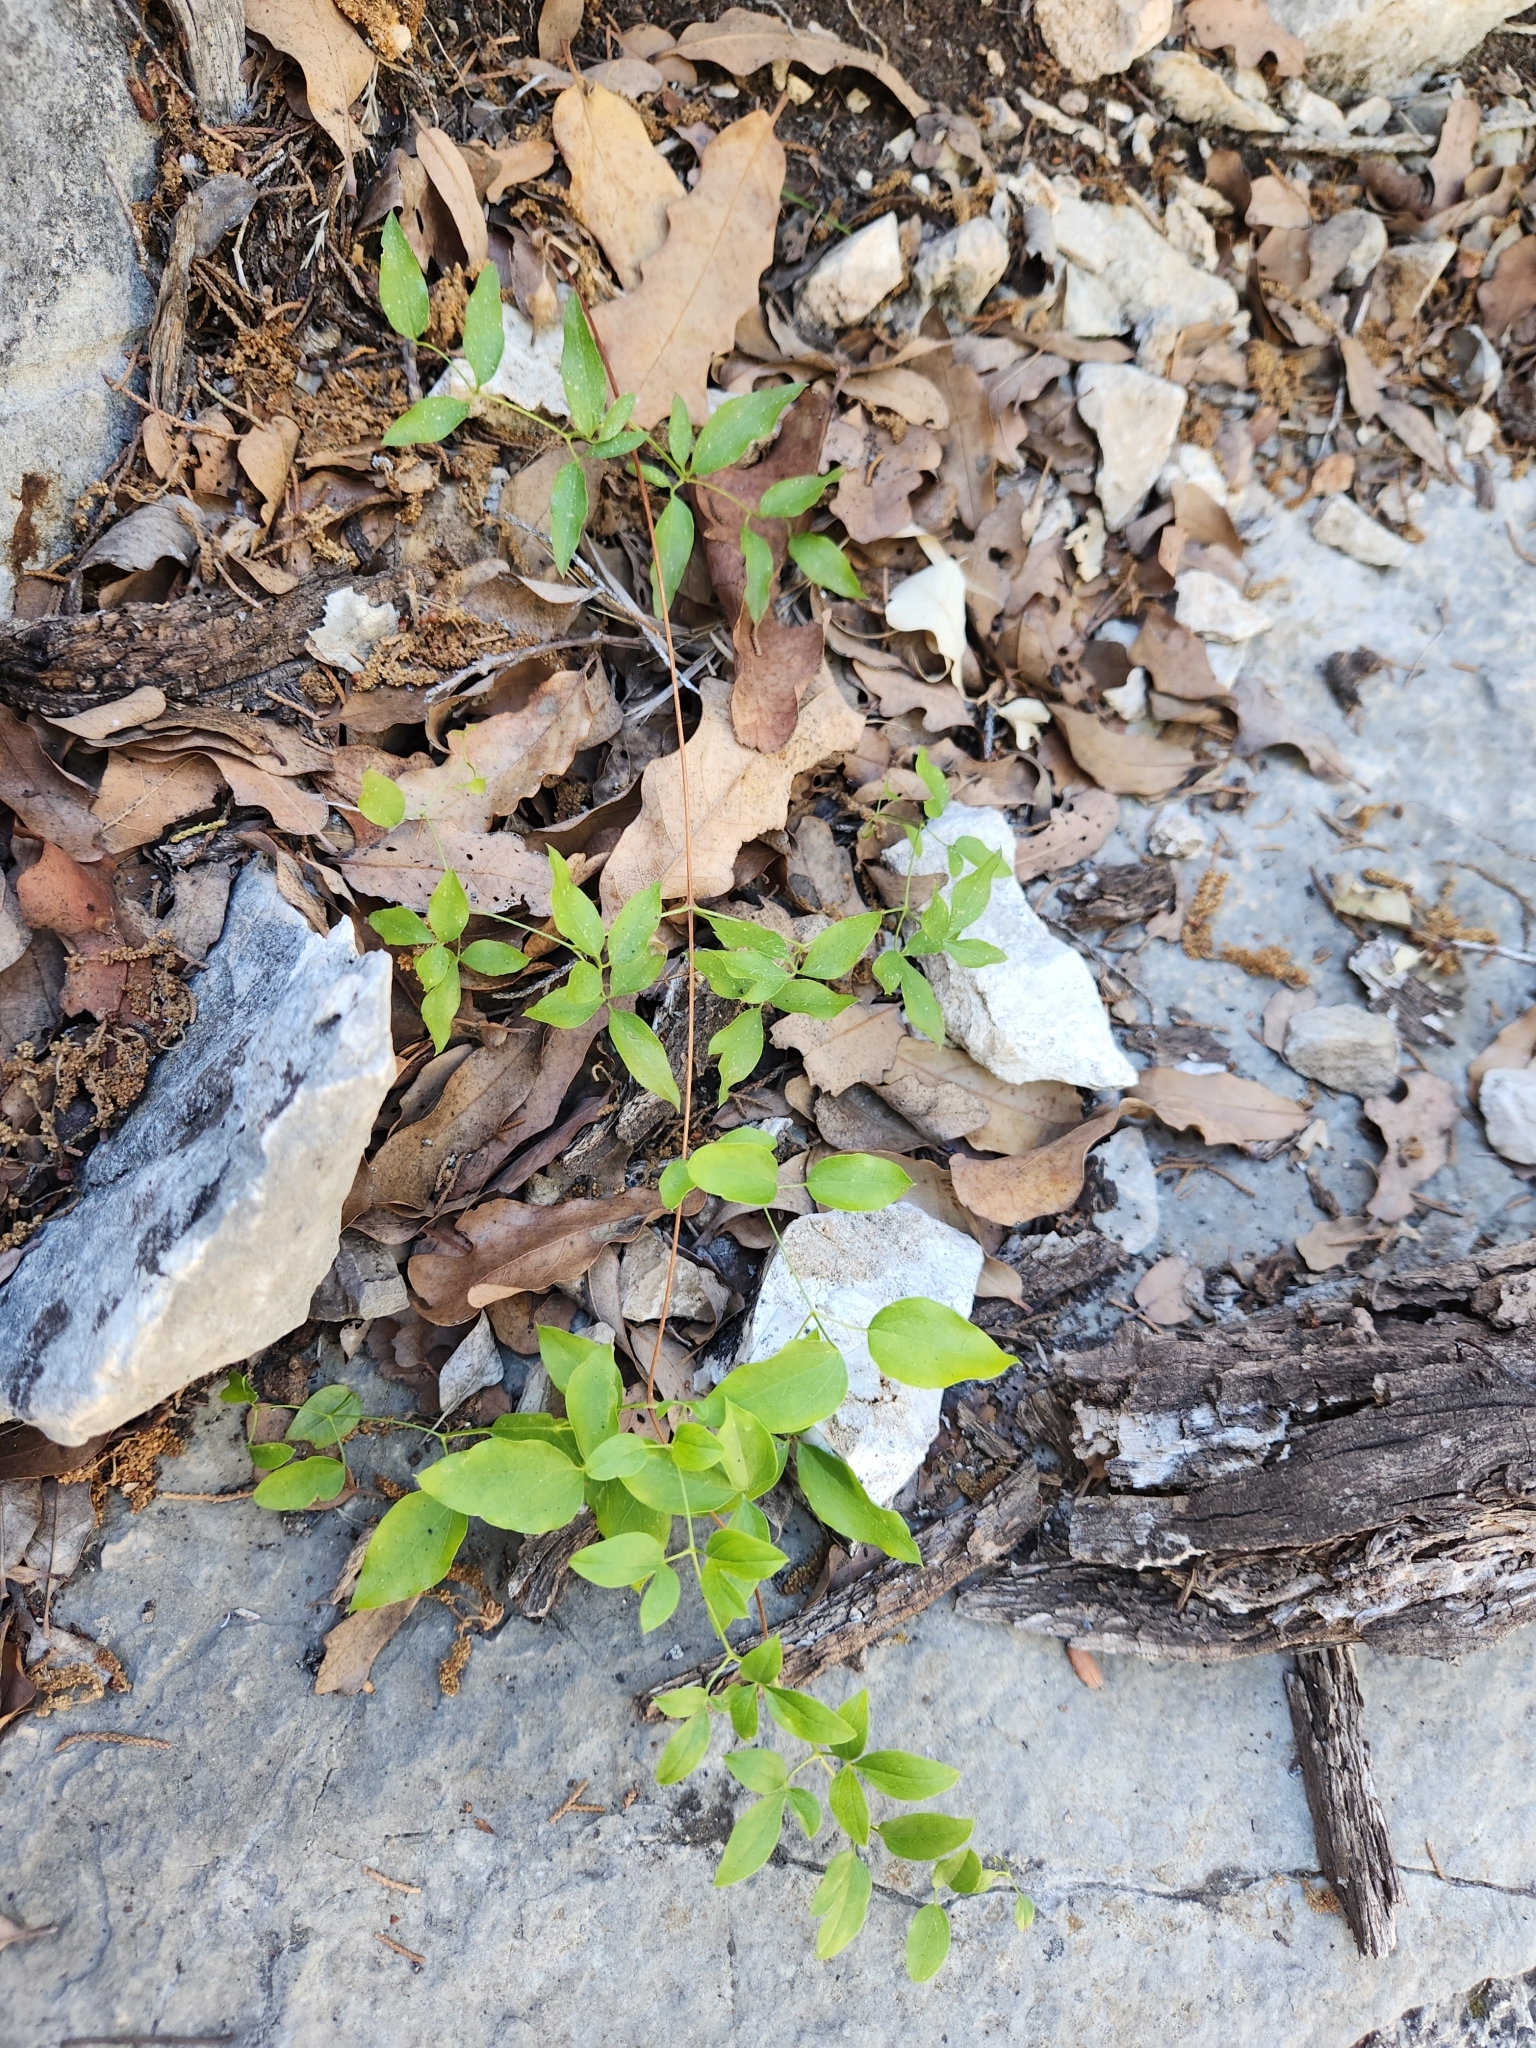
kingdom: Plantae
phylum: Tracheophyta
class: Magnoliopsida
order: Ranunculales
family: Ranunculaceae
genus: Clematis
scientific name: Clematis pitcheri
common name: Bellflower clematis
